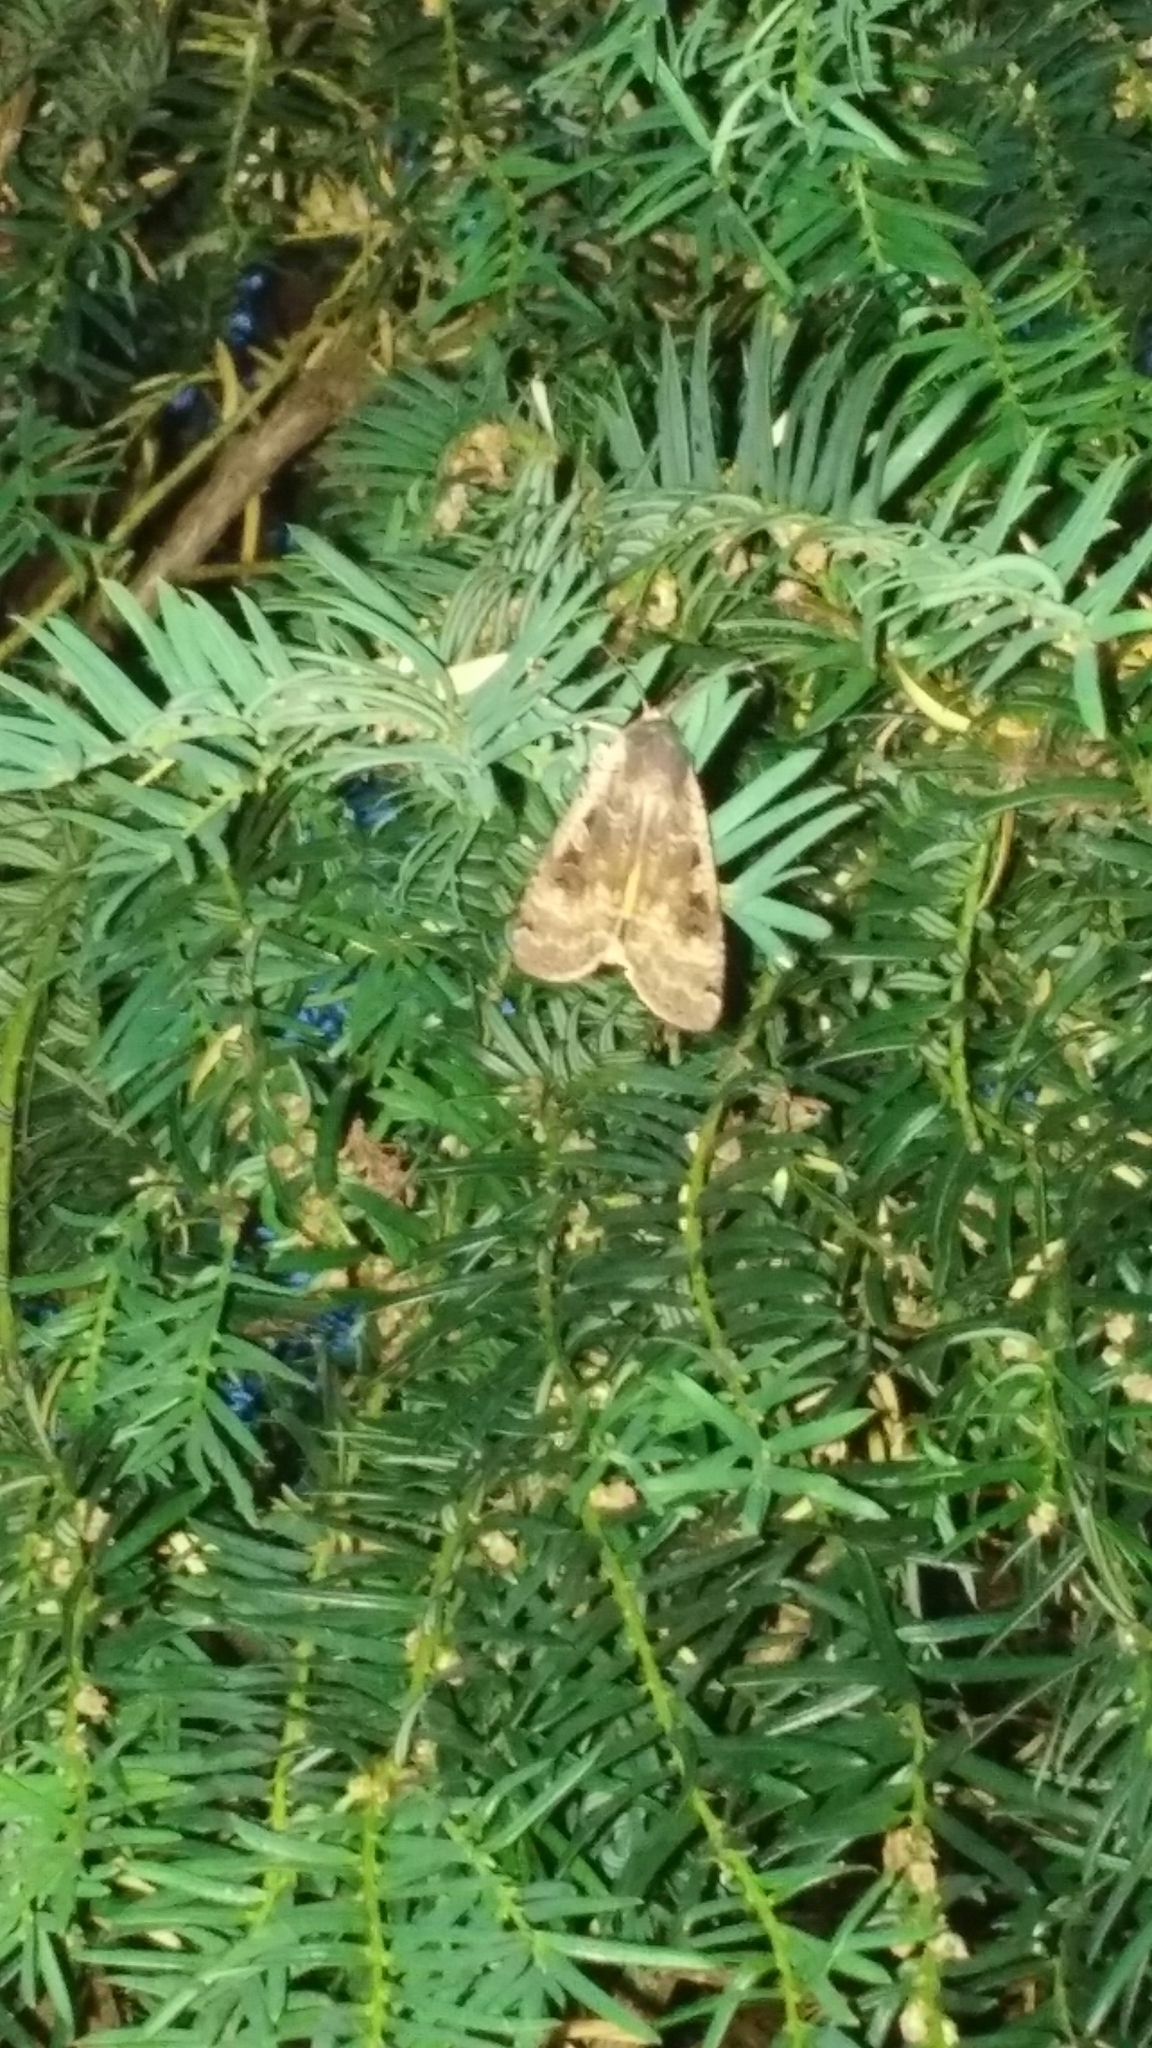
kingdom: Animalia
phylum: Arthropoda
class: Insecta
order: Lepidoptera
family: Noctuidae
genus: Noctua
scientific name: Noctua pronuba
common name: Large yellow underwing
